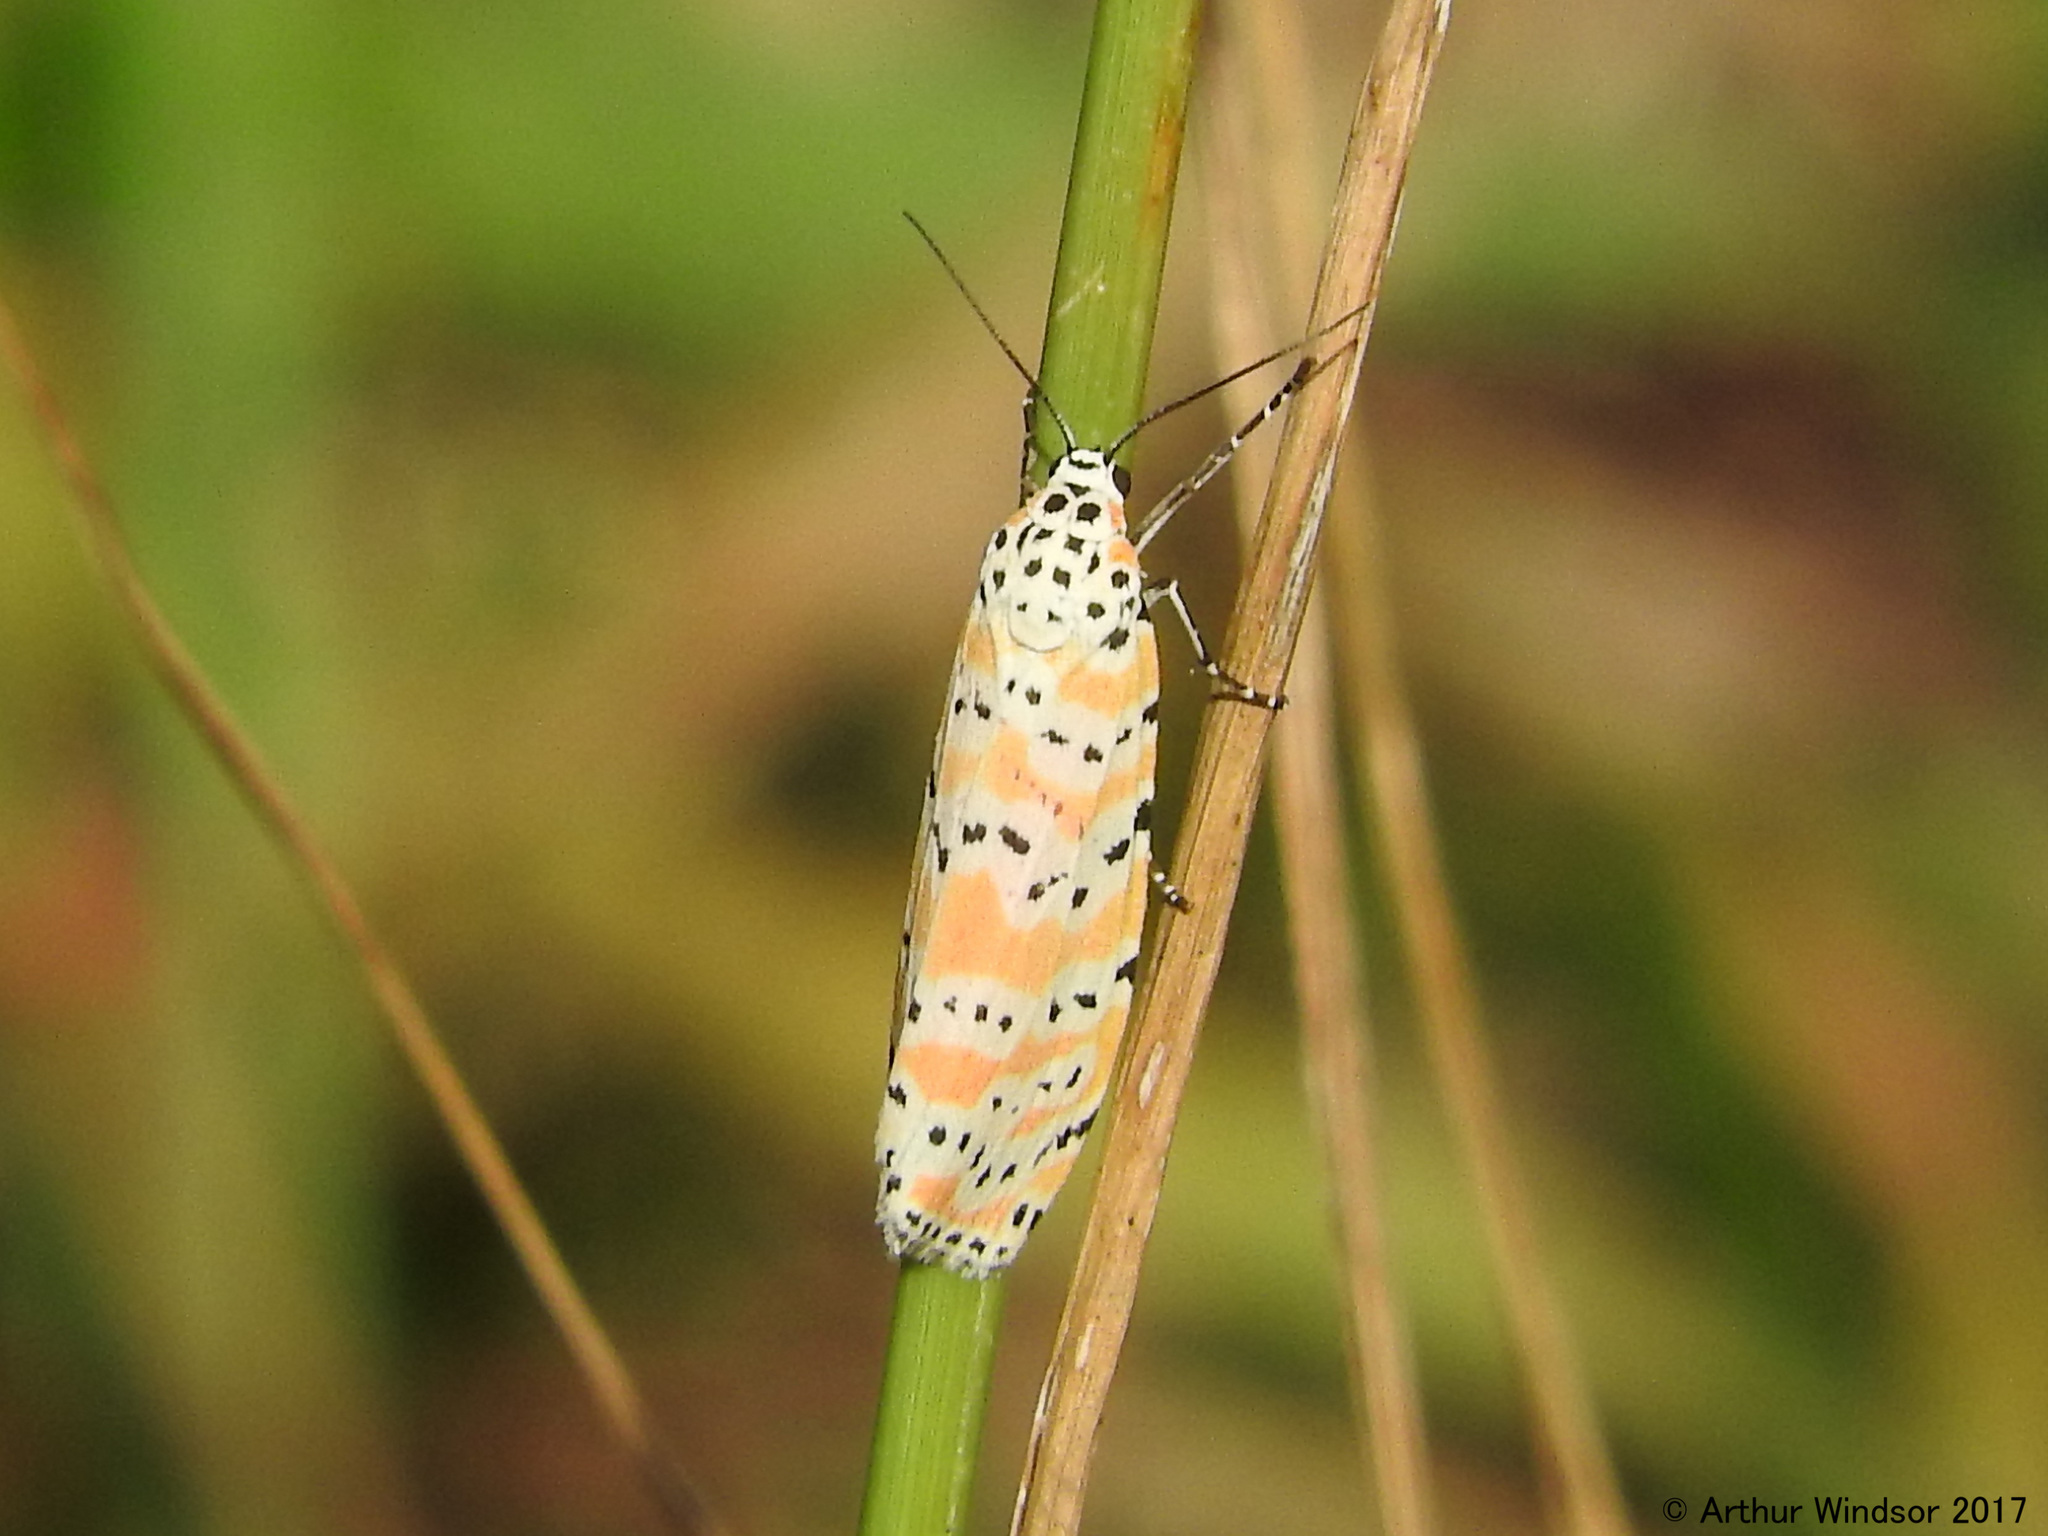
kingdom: Animalia
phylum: Arthropoda
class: Insecta
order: Lepidoptera
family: Erebidae
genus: Utetheisa
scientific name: Utetheisa ornatrix
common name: Beautiful utetheisa
